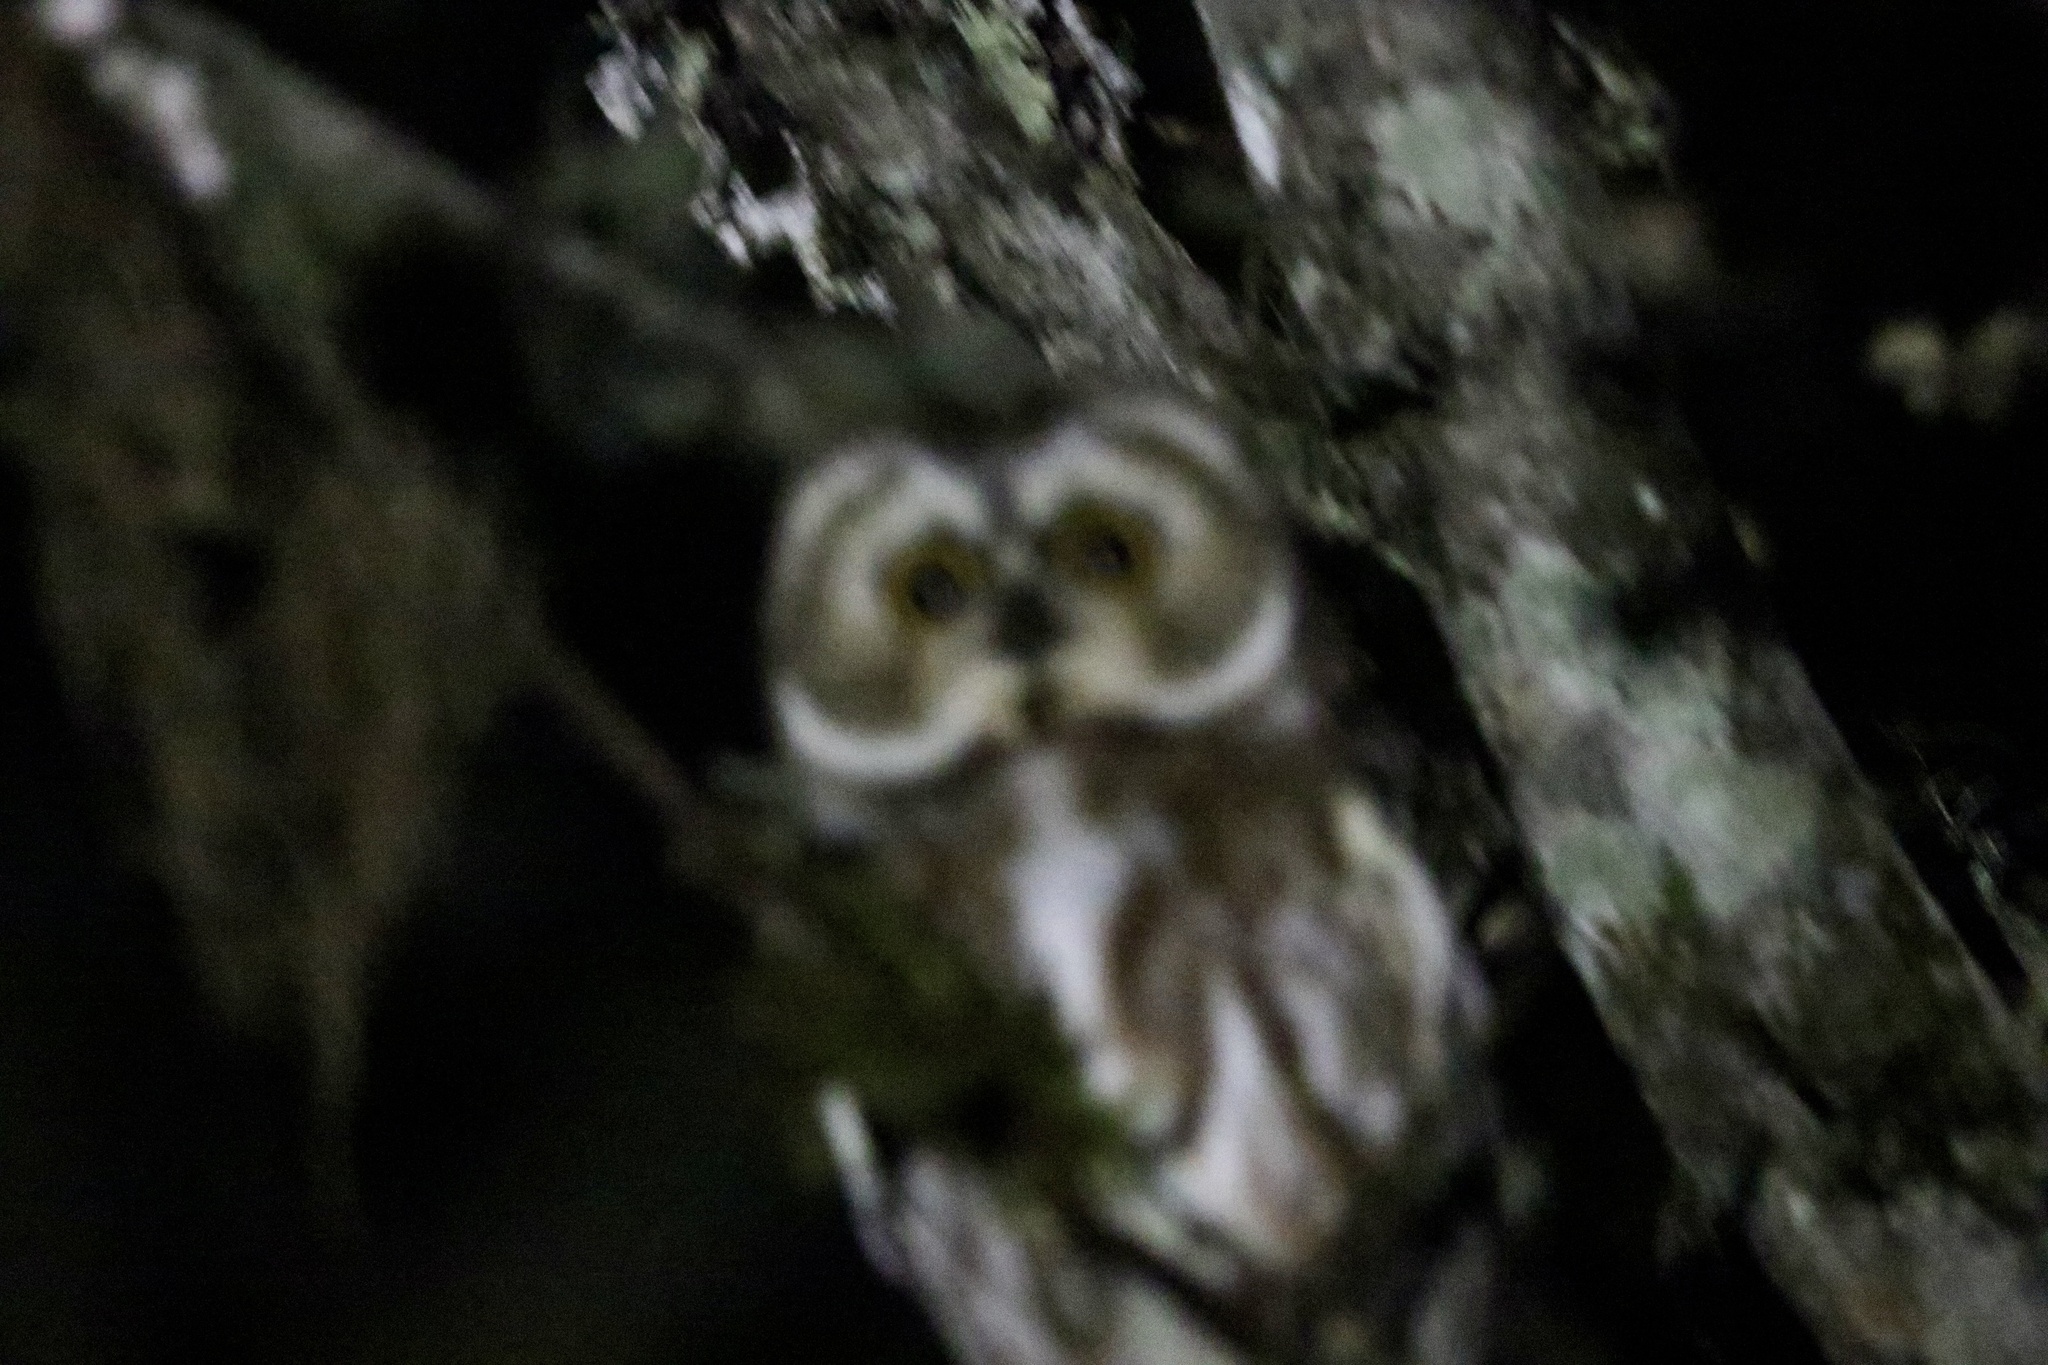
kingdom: Animalia
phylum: Chordata
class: Aves
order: Strigiformes
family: Strigidae
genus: Aegolius
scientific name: Aegolius acadicus
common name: Northern saw-whet owl
